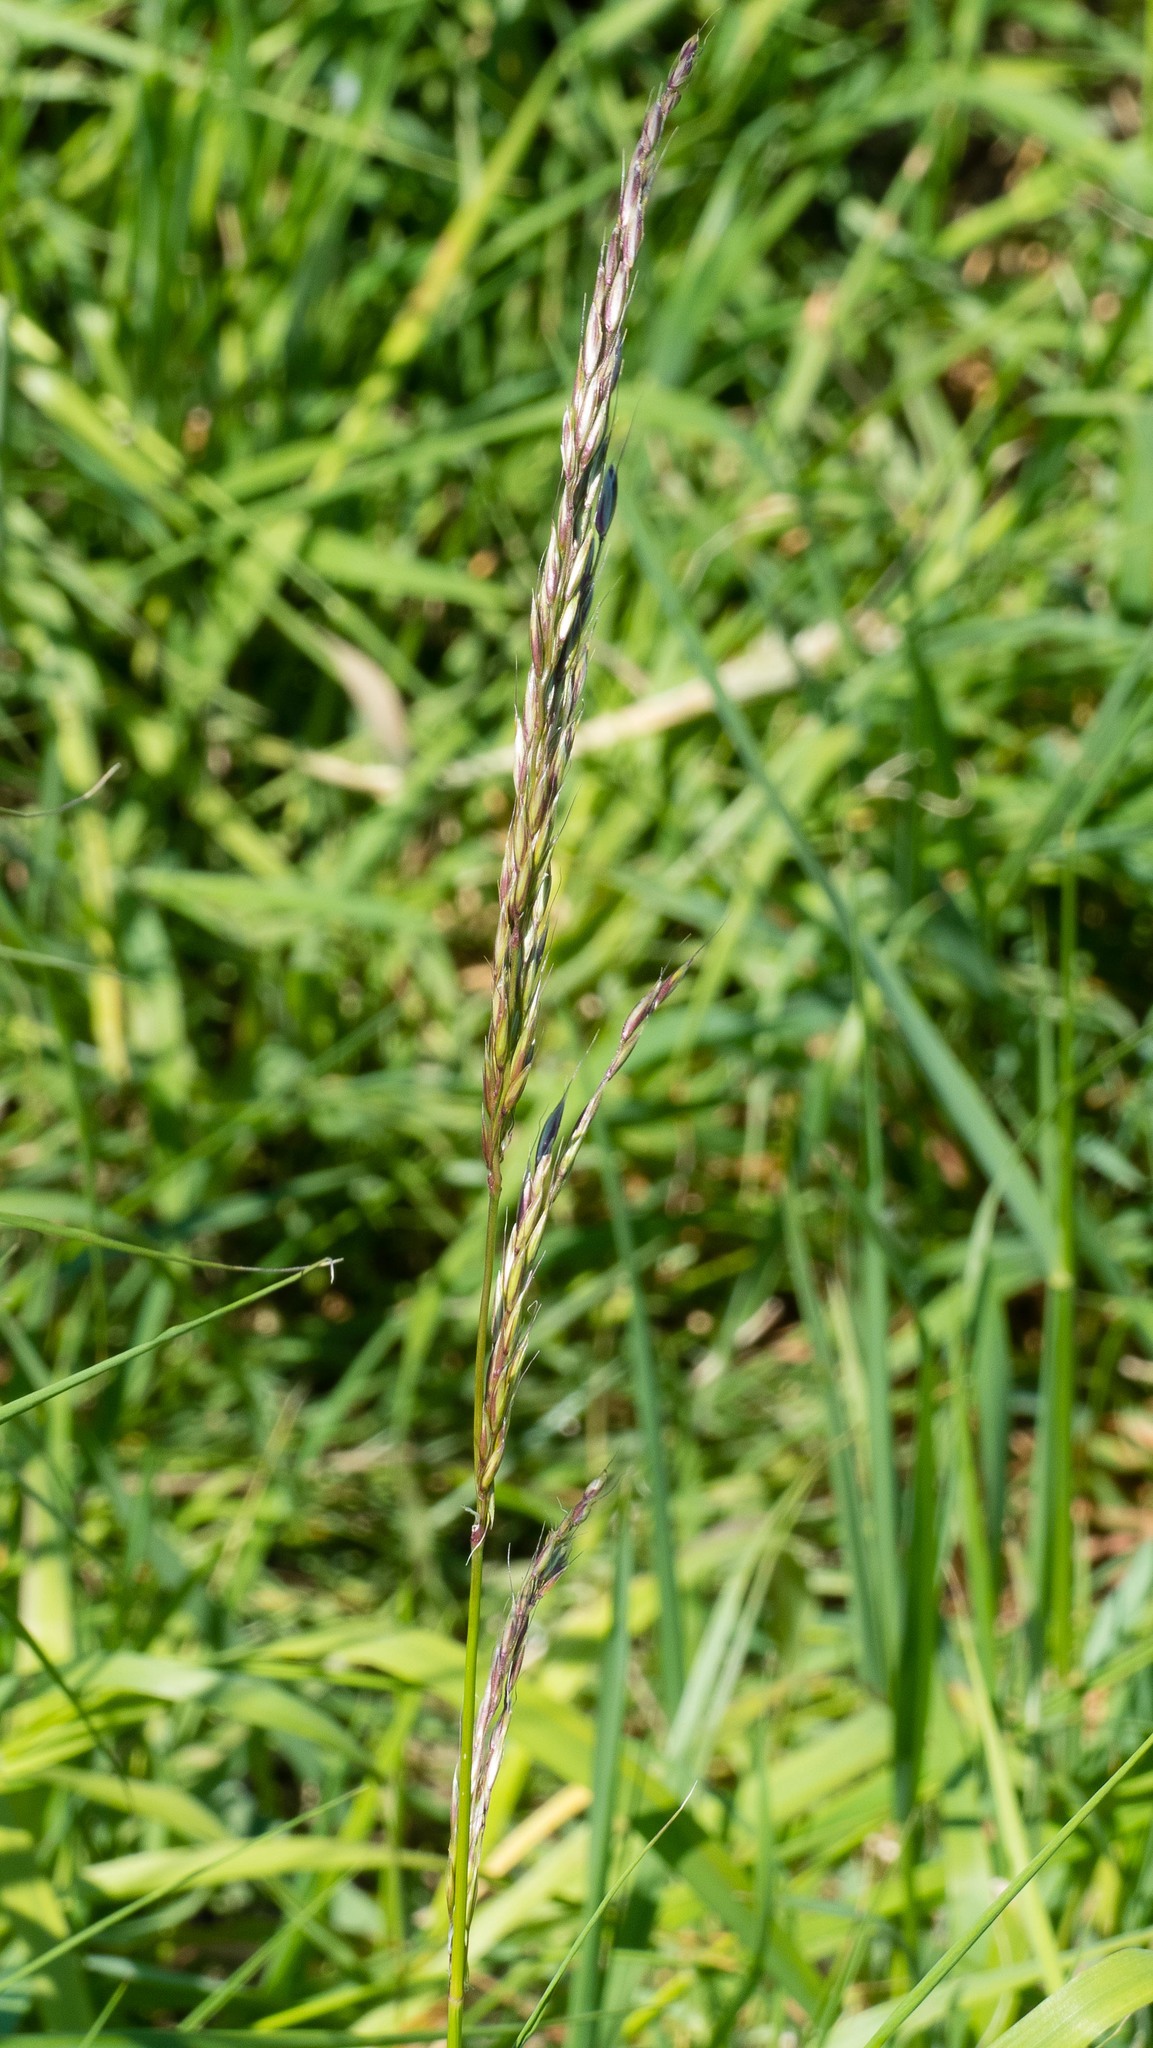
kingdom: Plantae
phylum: Tracheophyta
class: Liliopsida
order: Poales
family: Poaceae
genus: Arrhenatherum
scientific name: Arrhenatherum elatius
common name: Tall oatgrass
